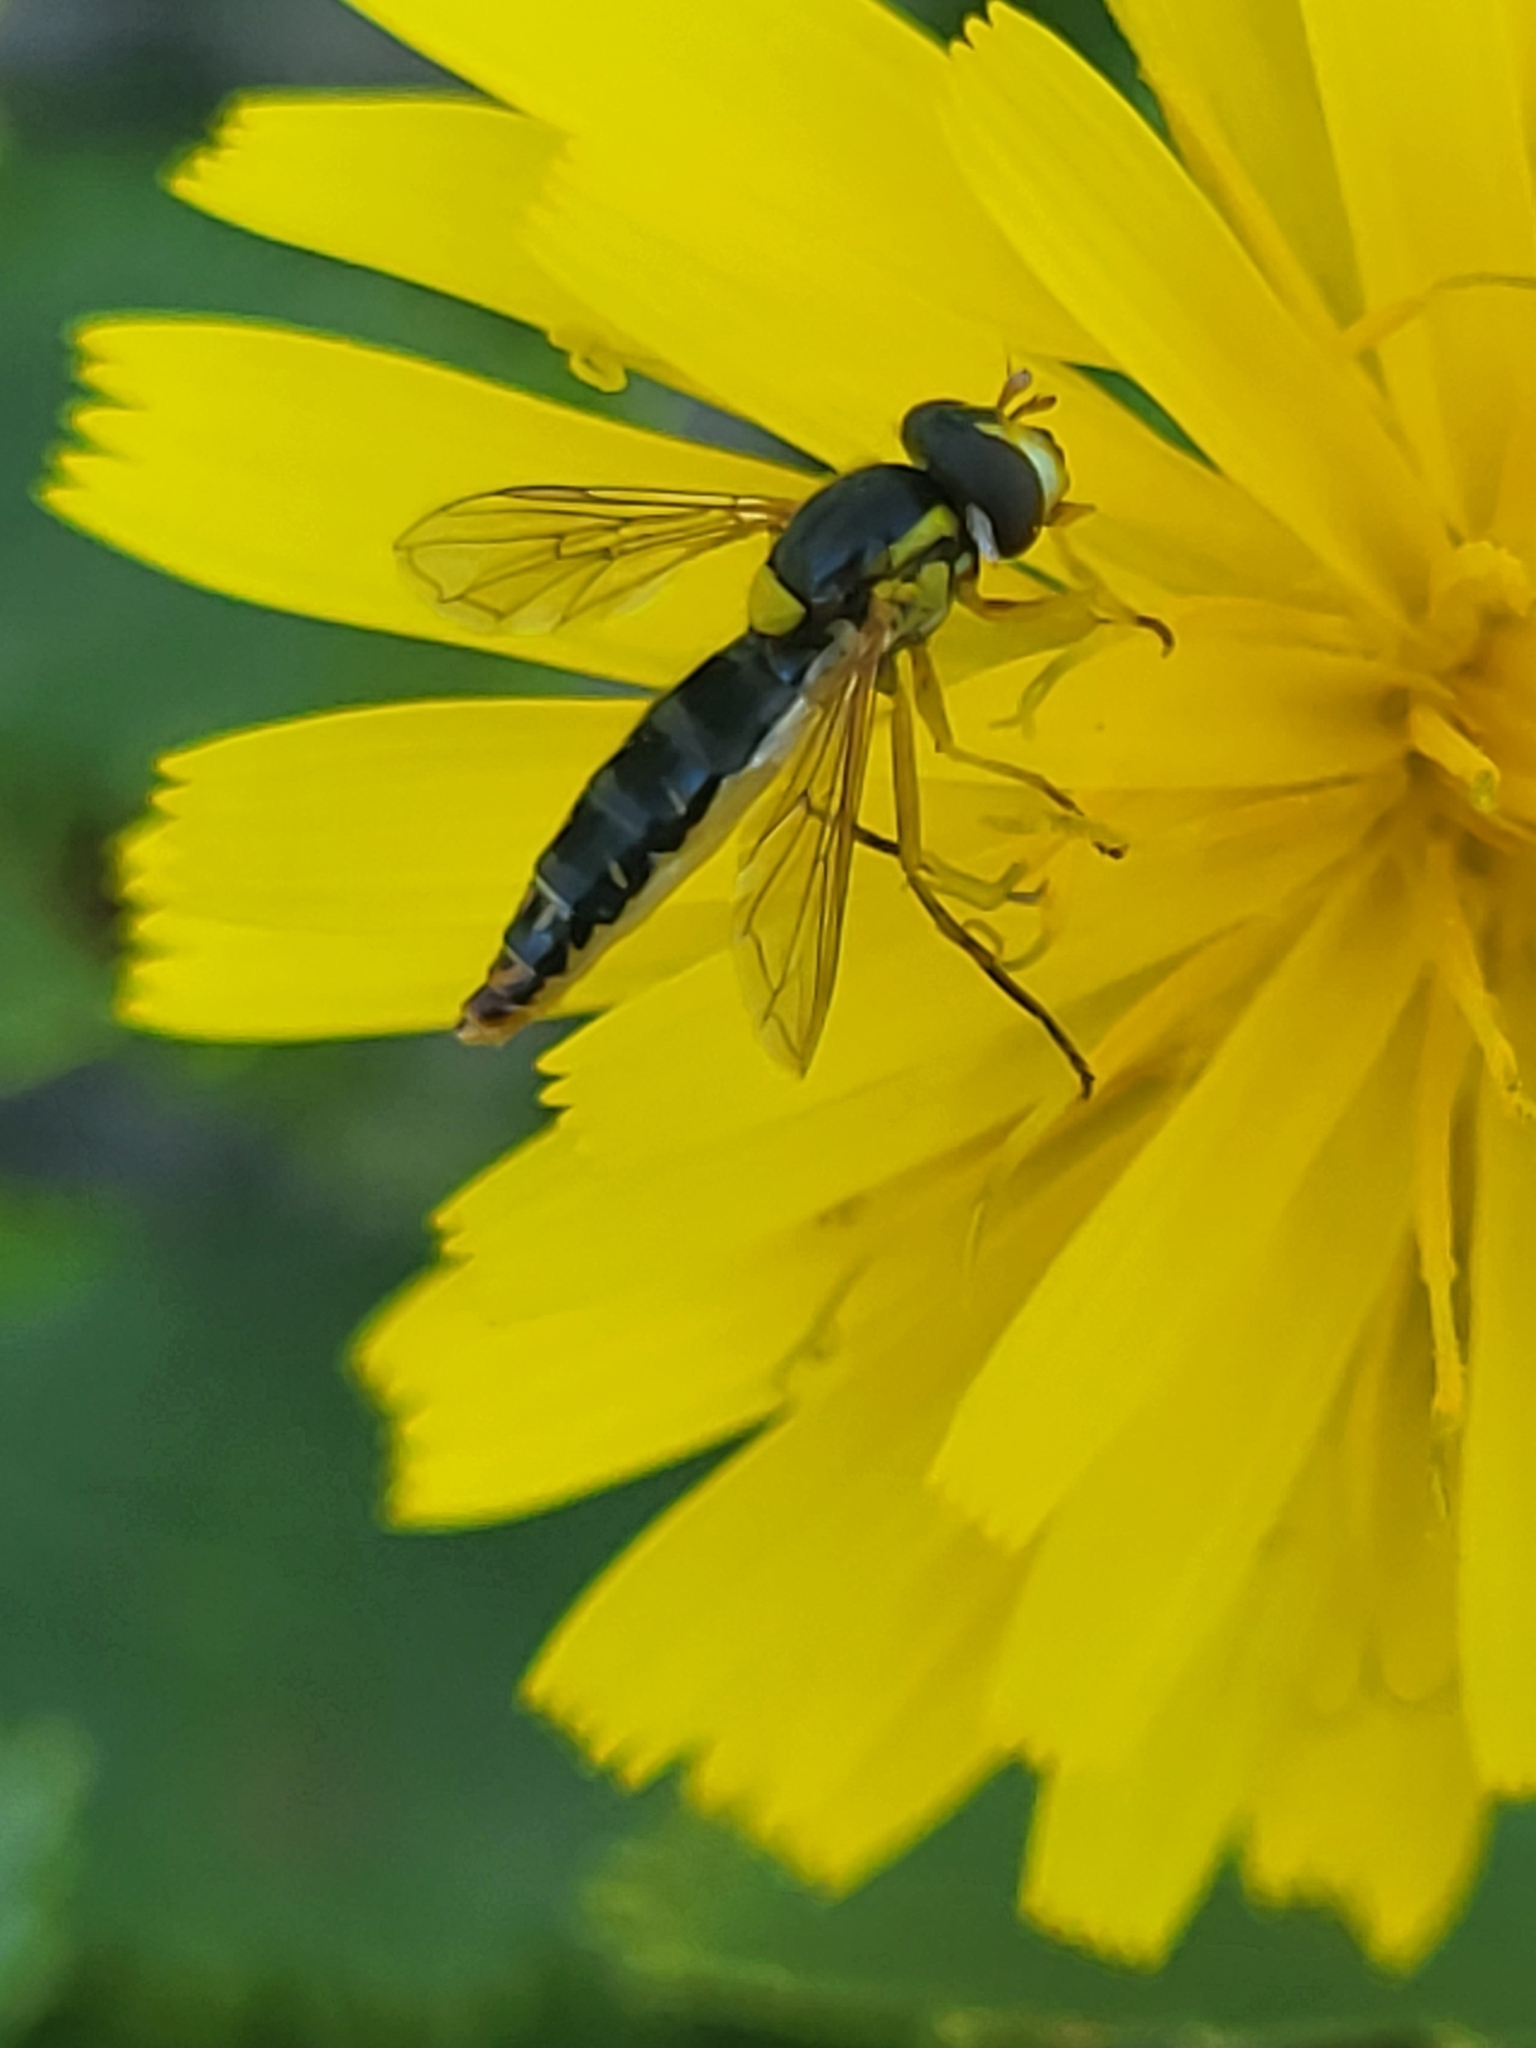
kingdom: Animalia
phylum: Arthropoda
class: Insecta
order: Diptera
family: Syrphidae
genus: Sphaerophoria
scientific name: Sphaerophoria
